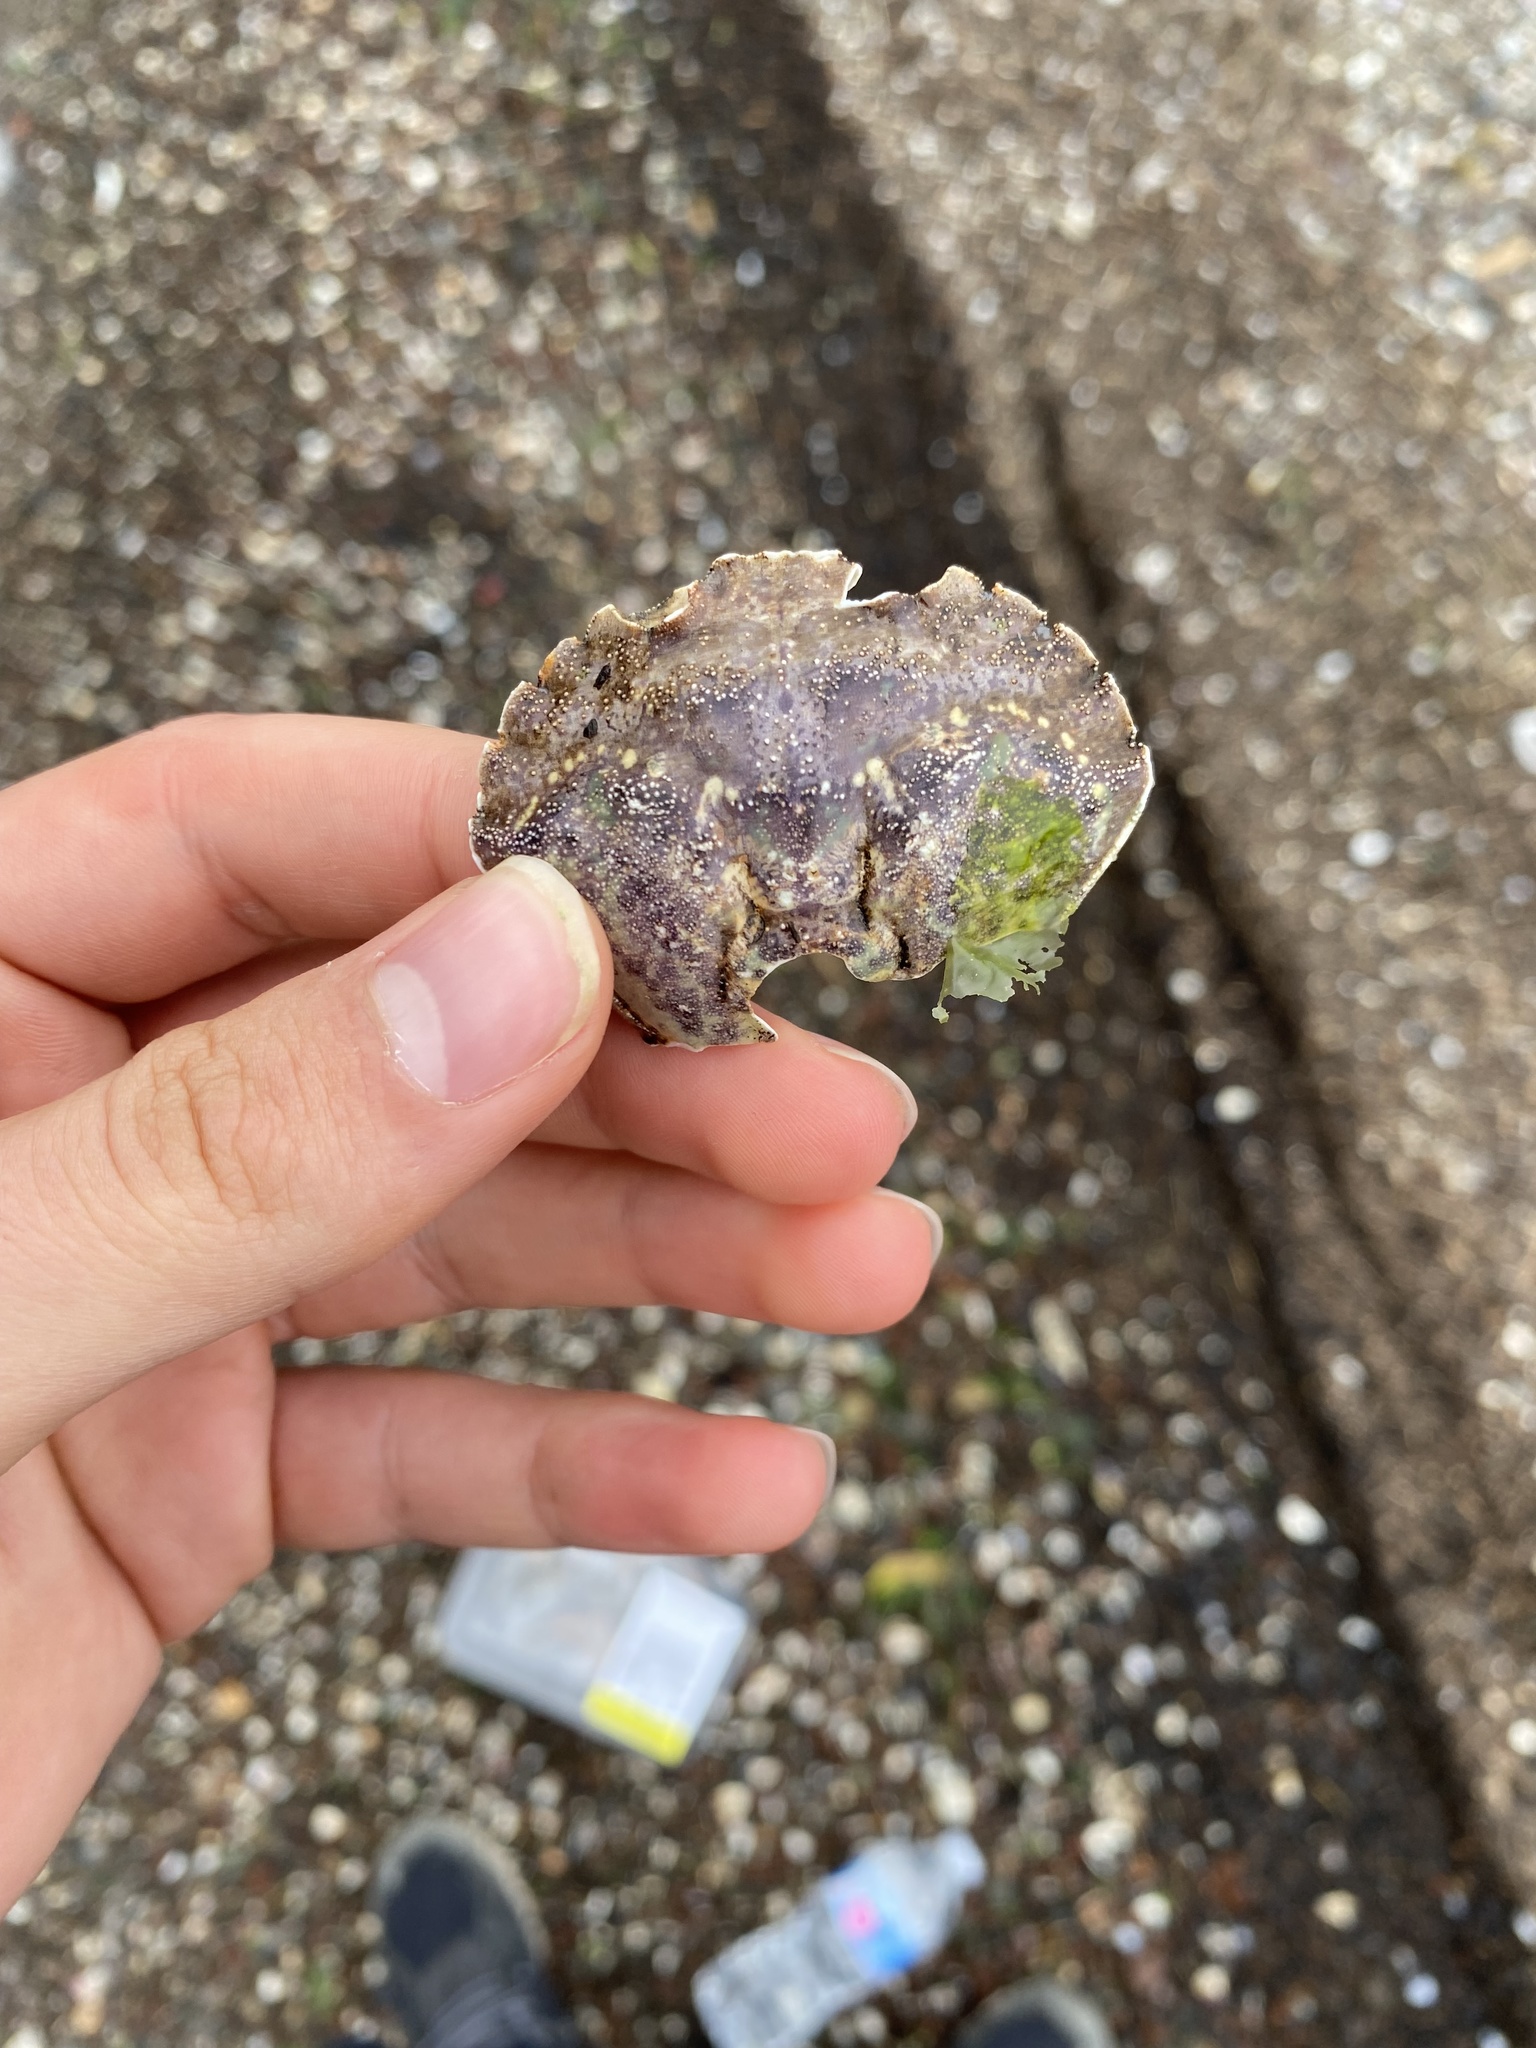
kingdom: Animalia
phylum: Arthropoda
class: Malacostraca
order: Decapoda
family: Carcinidae
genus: Carcinus
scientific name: Carcinus maenas
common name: European green crab
